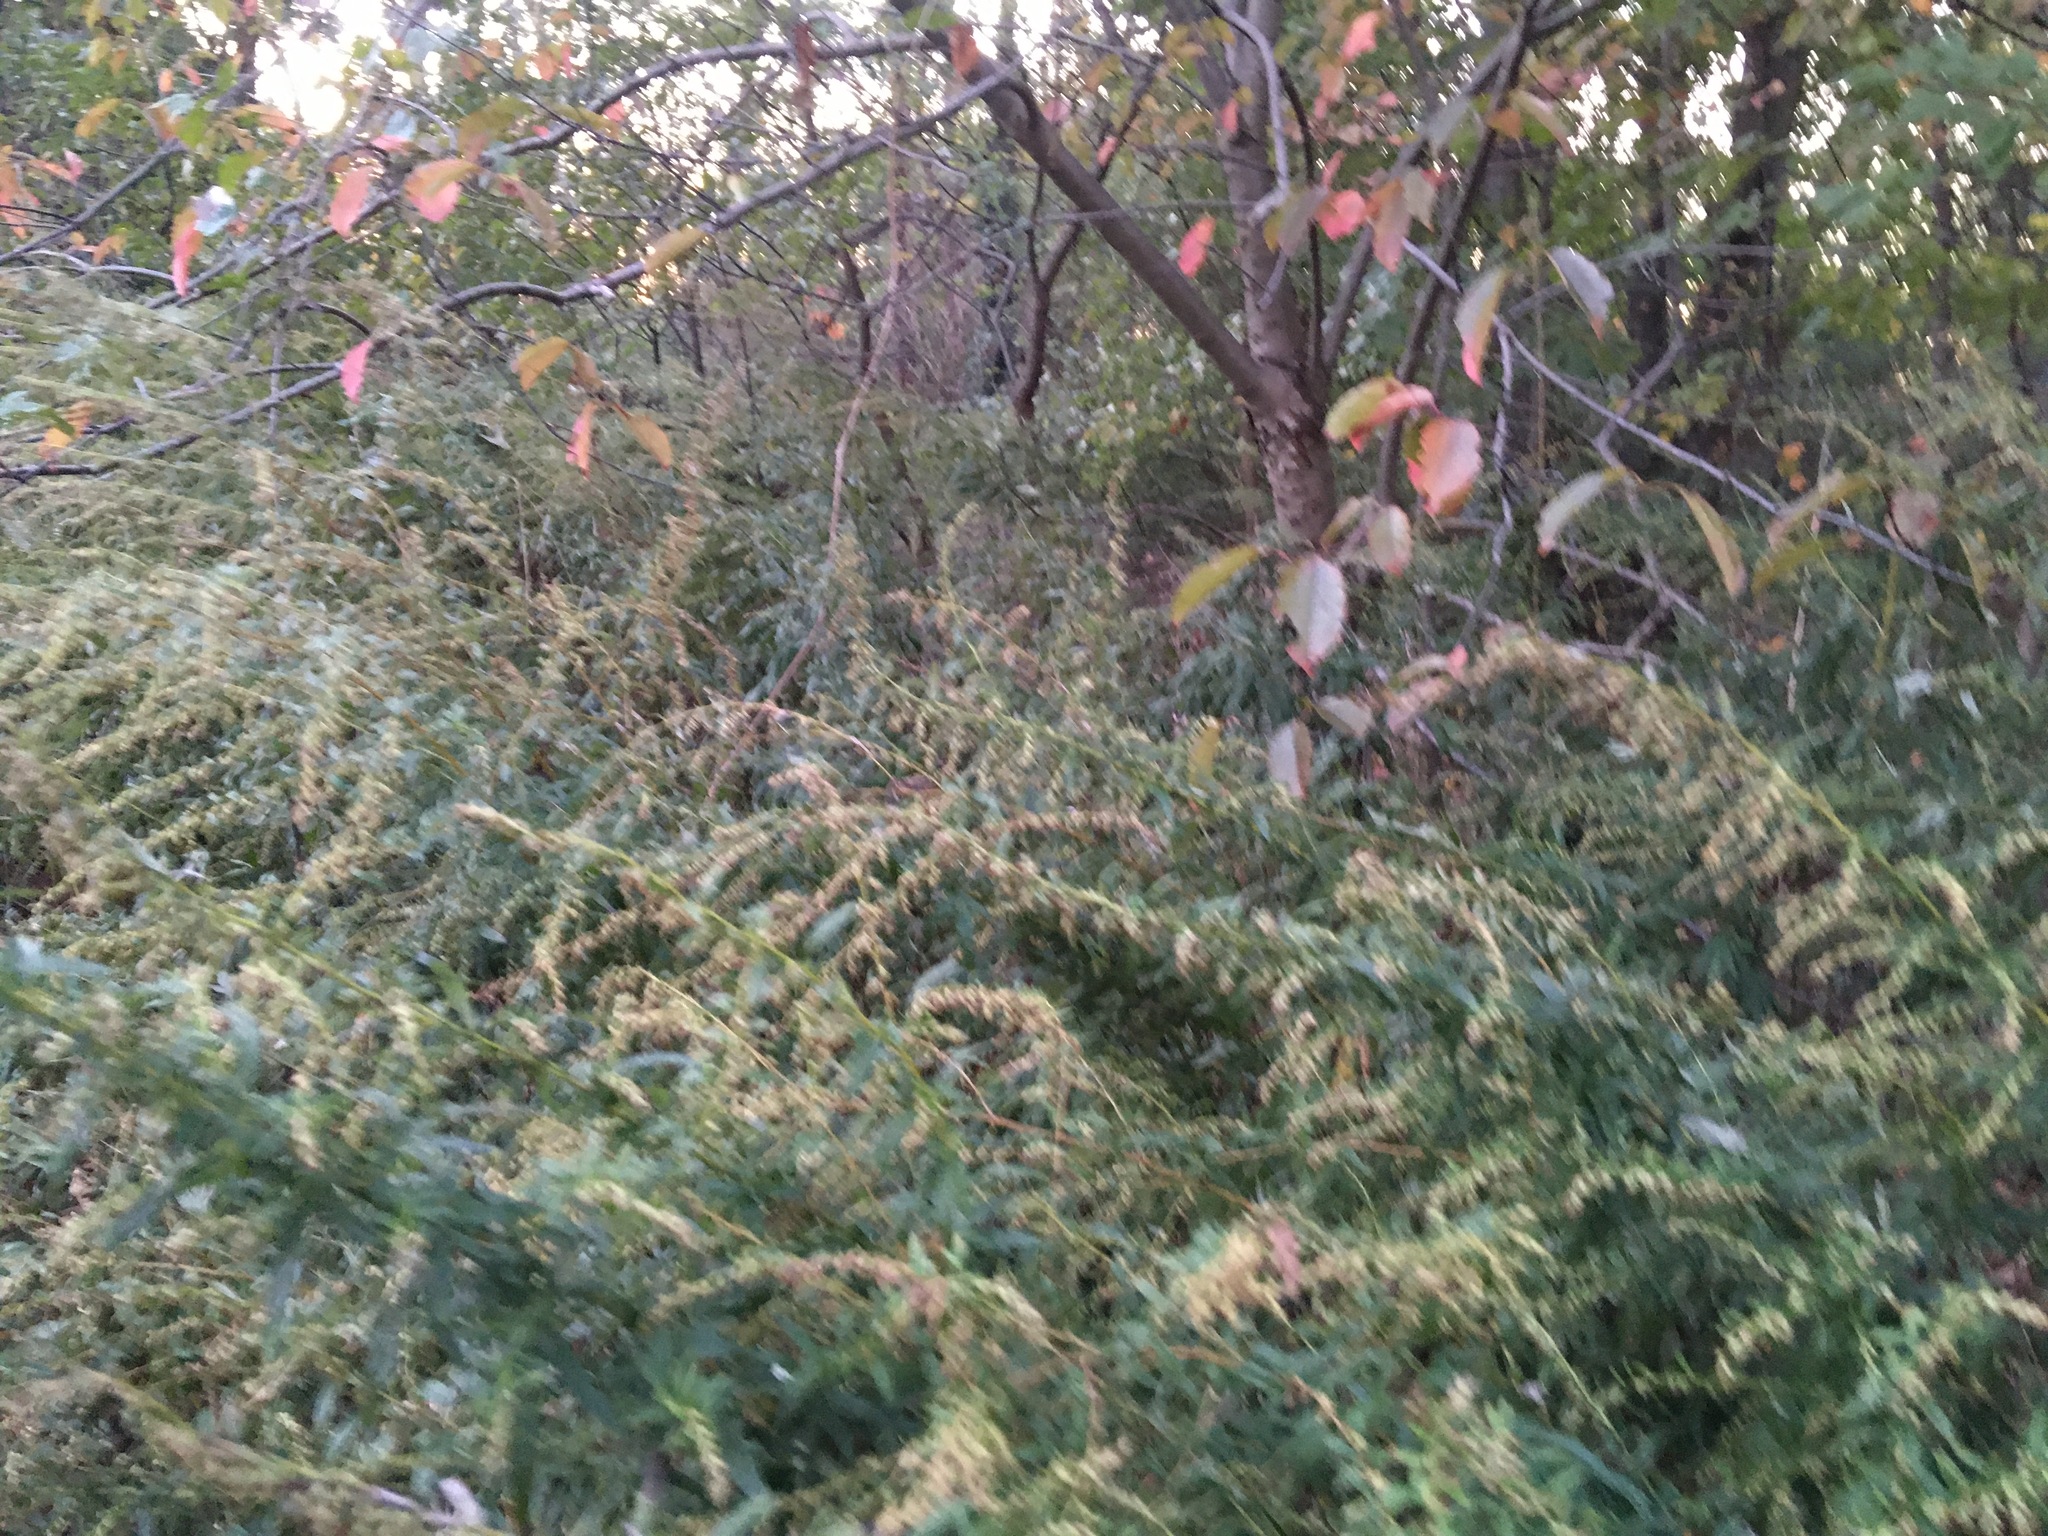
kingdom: Plantae
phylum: Tracheophyta
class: Magnoliopsida
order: Asterales
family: Asteraceae
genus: Artemisia
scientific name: Artemisia vulgaris
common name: Mugwort
